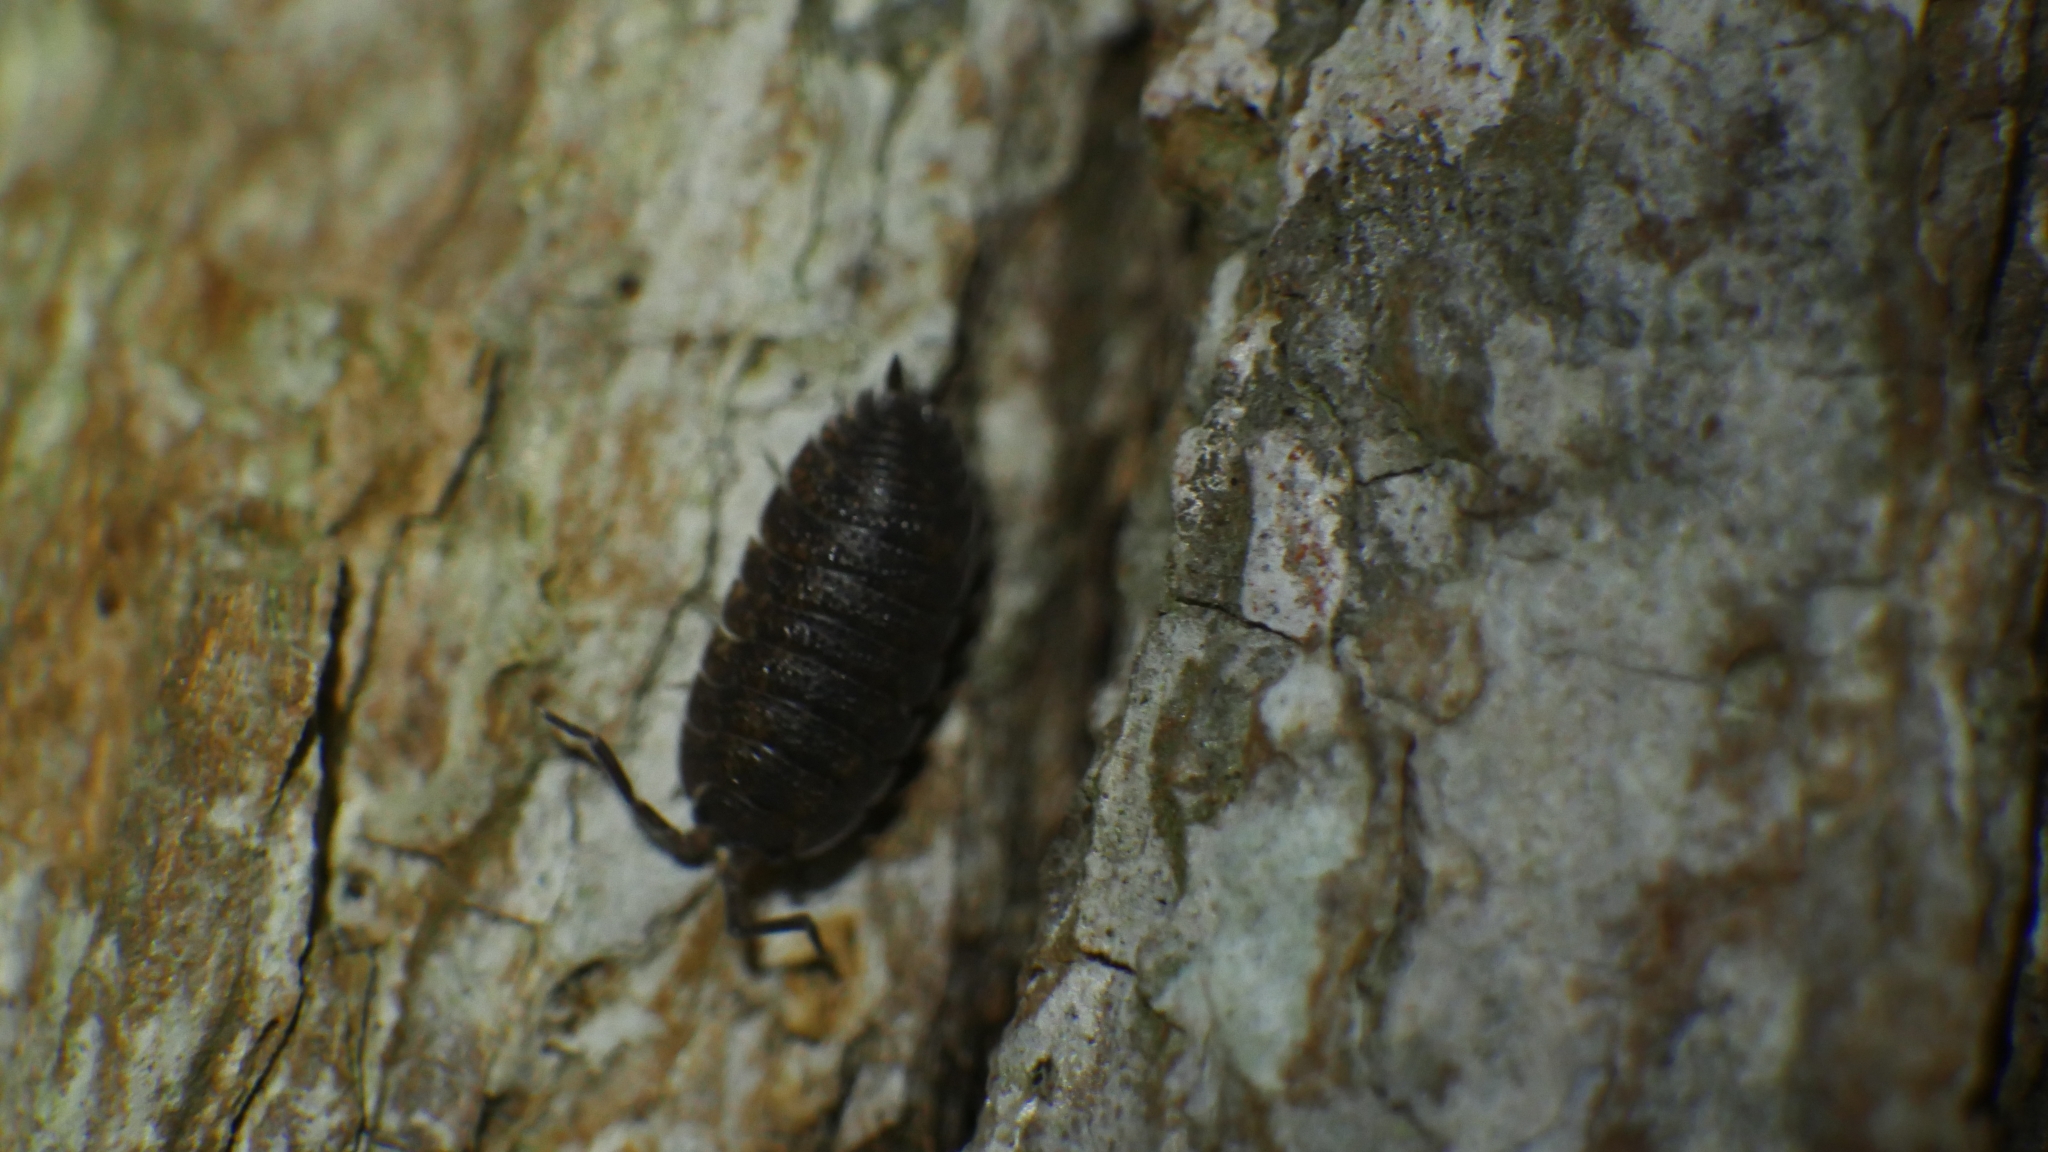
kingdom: Animalia
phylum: Arthropoda
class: Malacostraca
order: Isopoda
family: Porcellionidae
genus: Porcellio
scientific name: Porcellio scaber
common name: Common rough woodlouse
